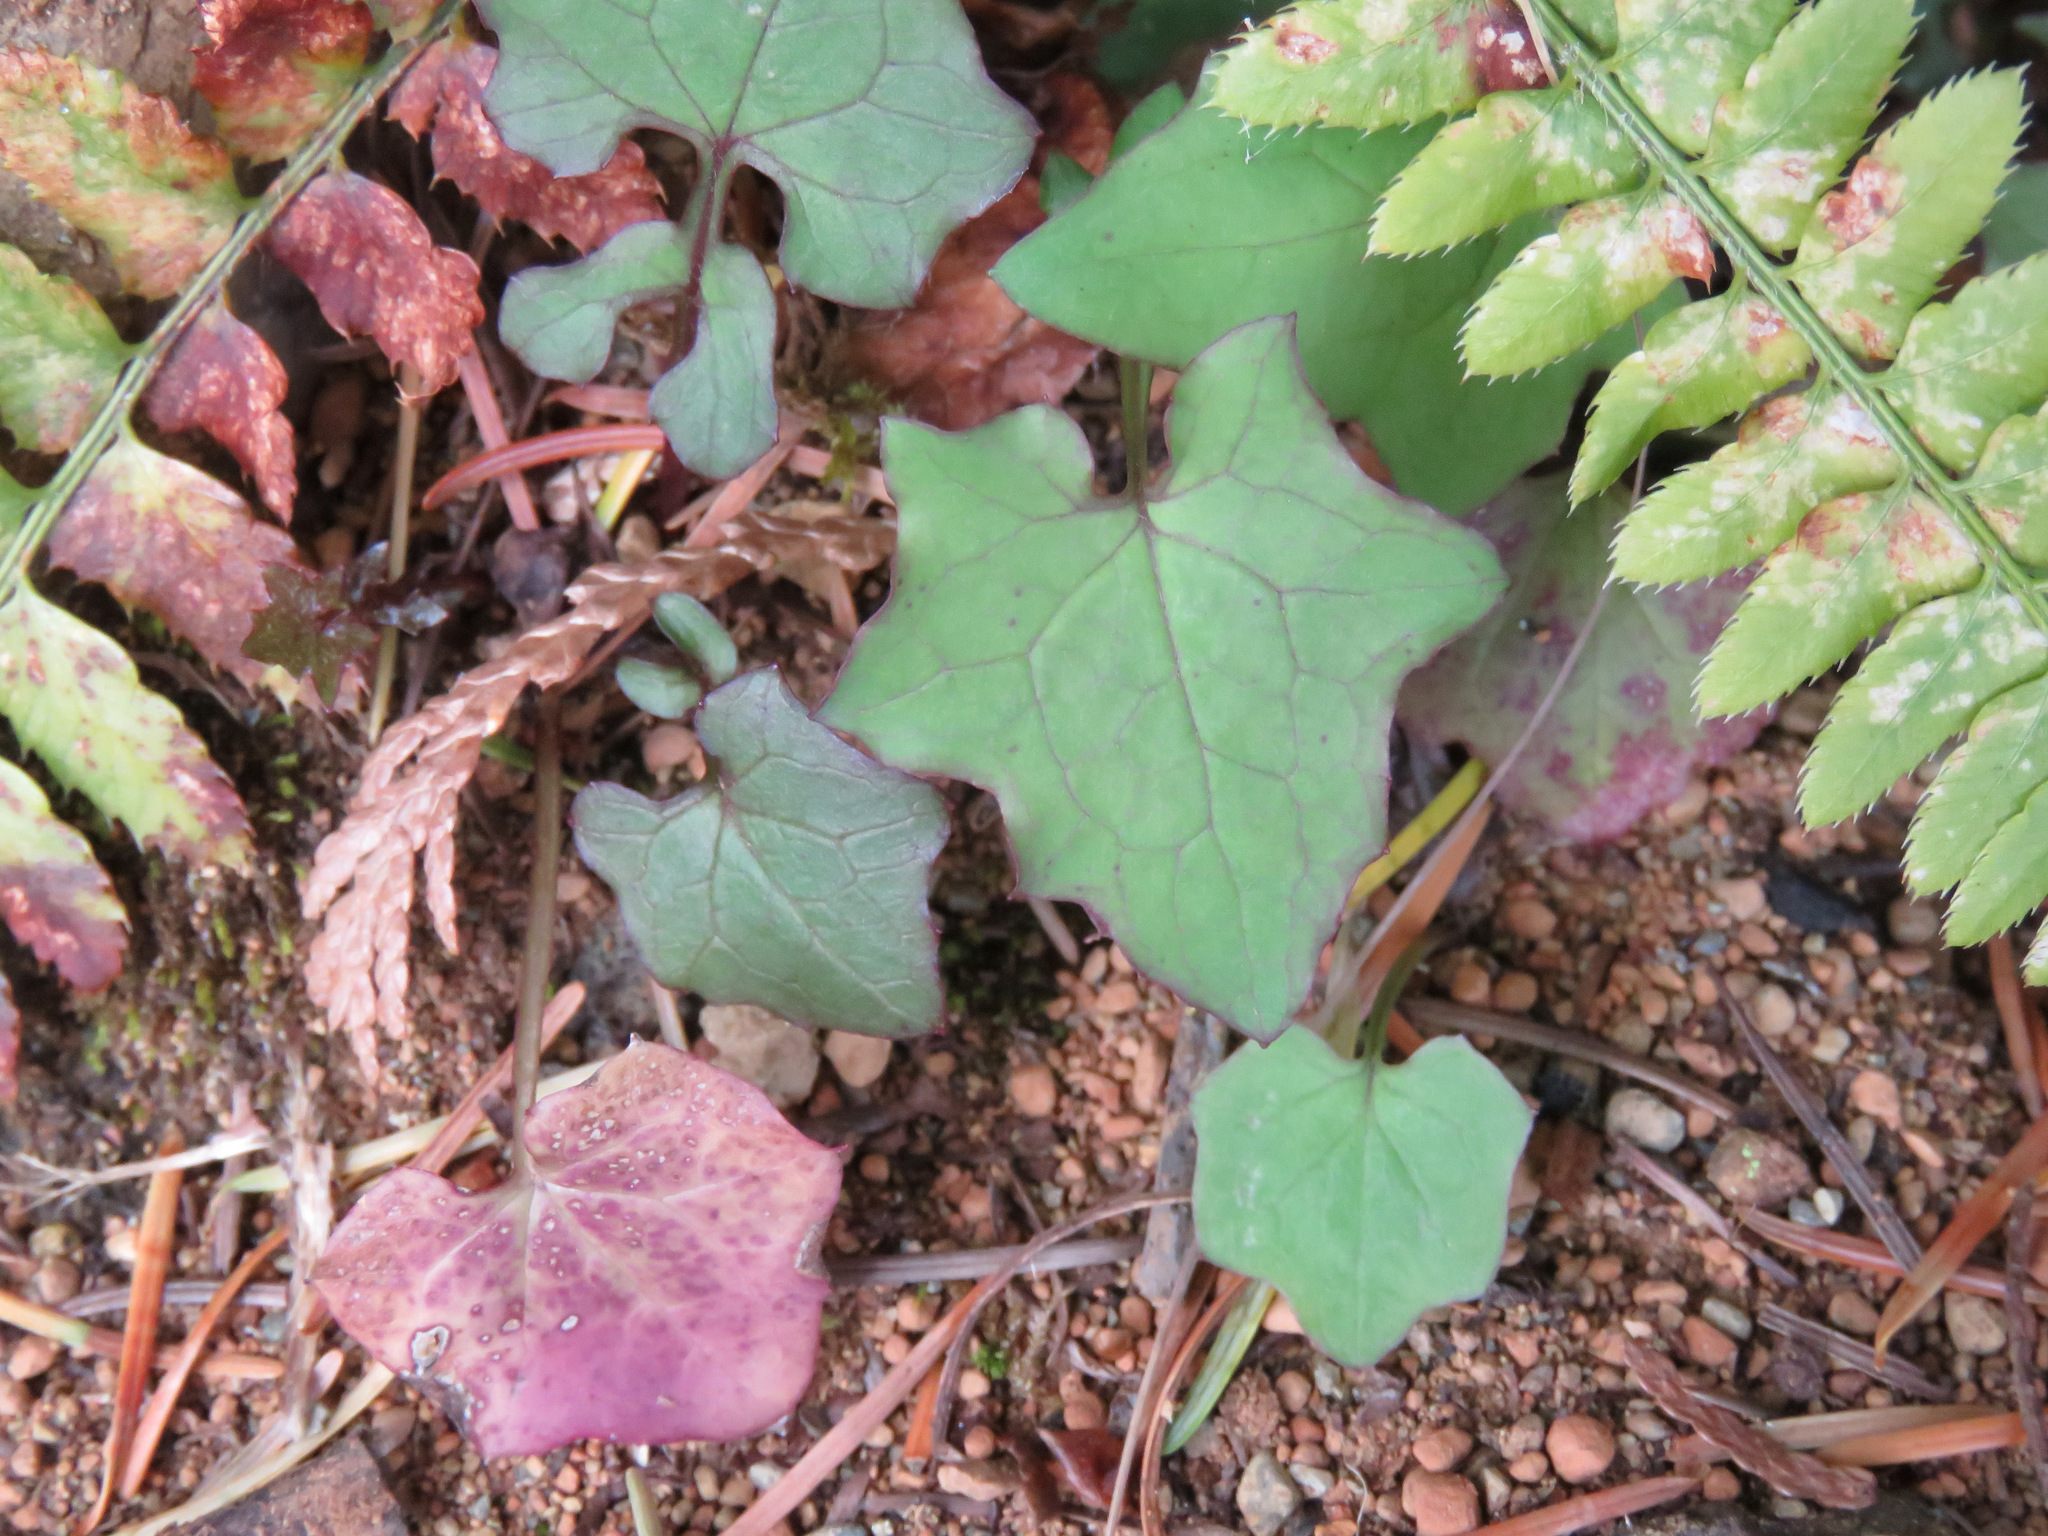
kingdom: Plantae
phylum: Tracheophyta
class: Magnoliopsida
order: Asterales
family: Asteraceae
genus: Mycelis
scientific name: Mycelis muralis
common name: Wall lettuce
